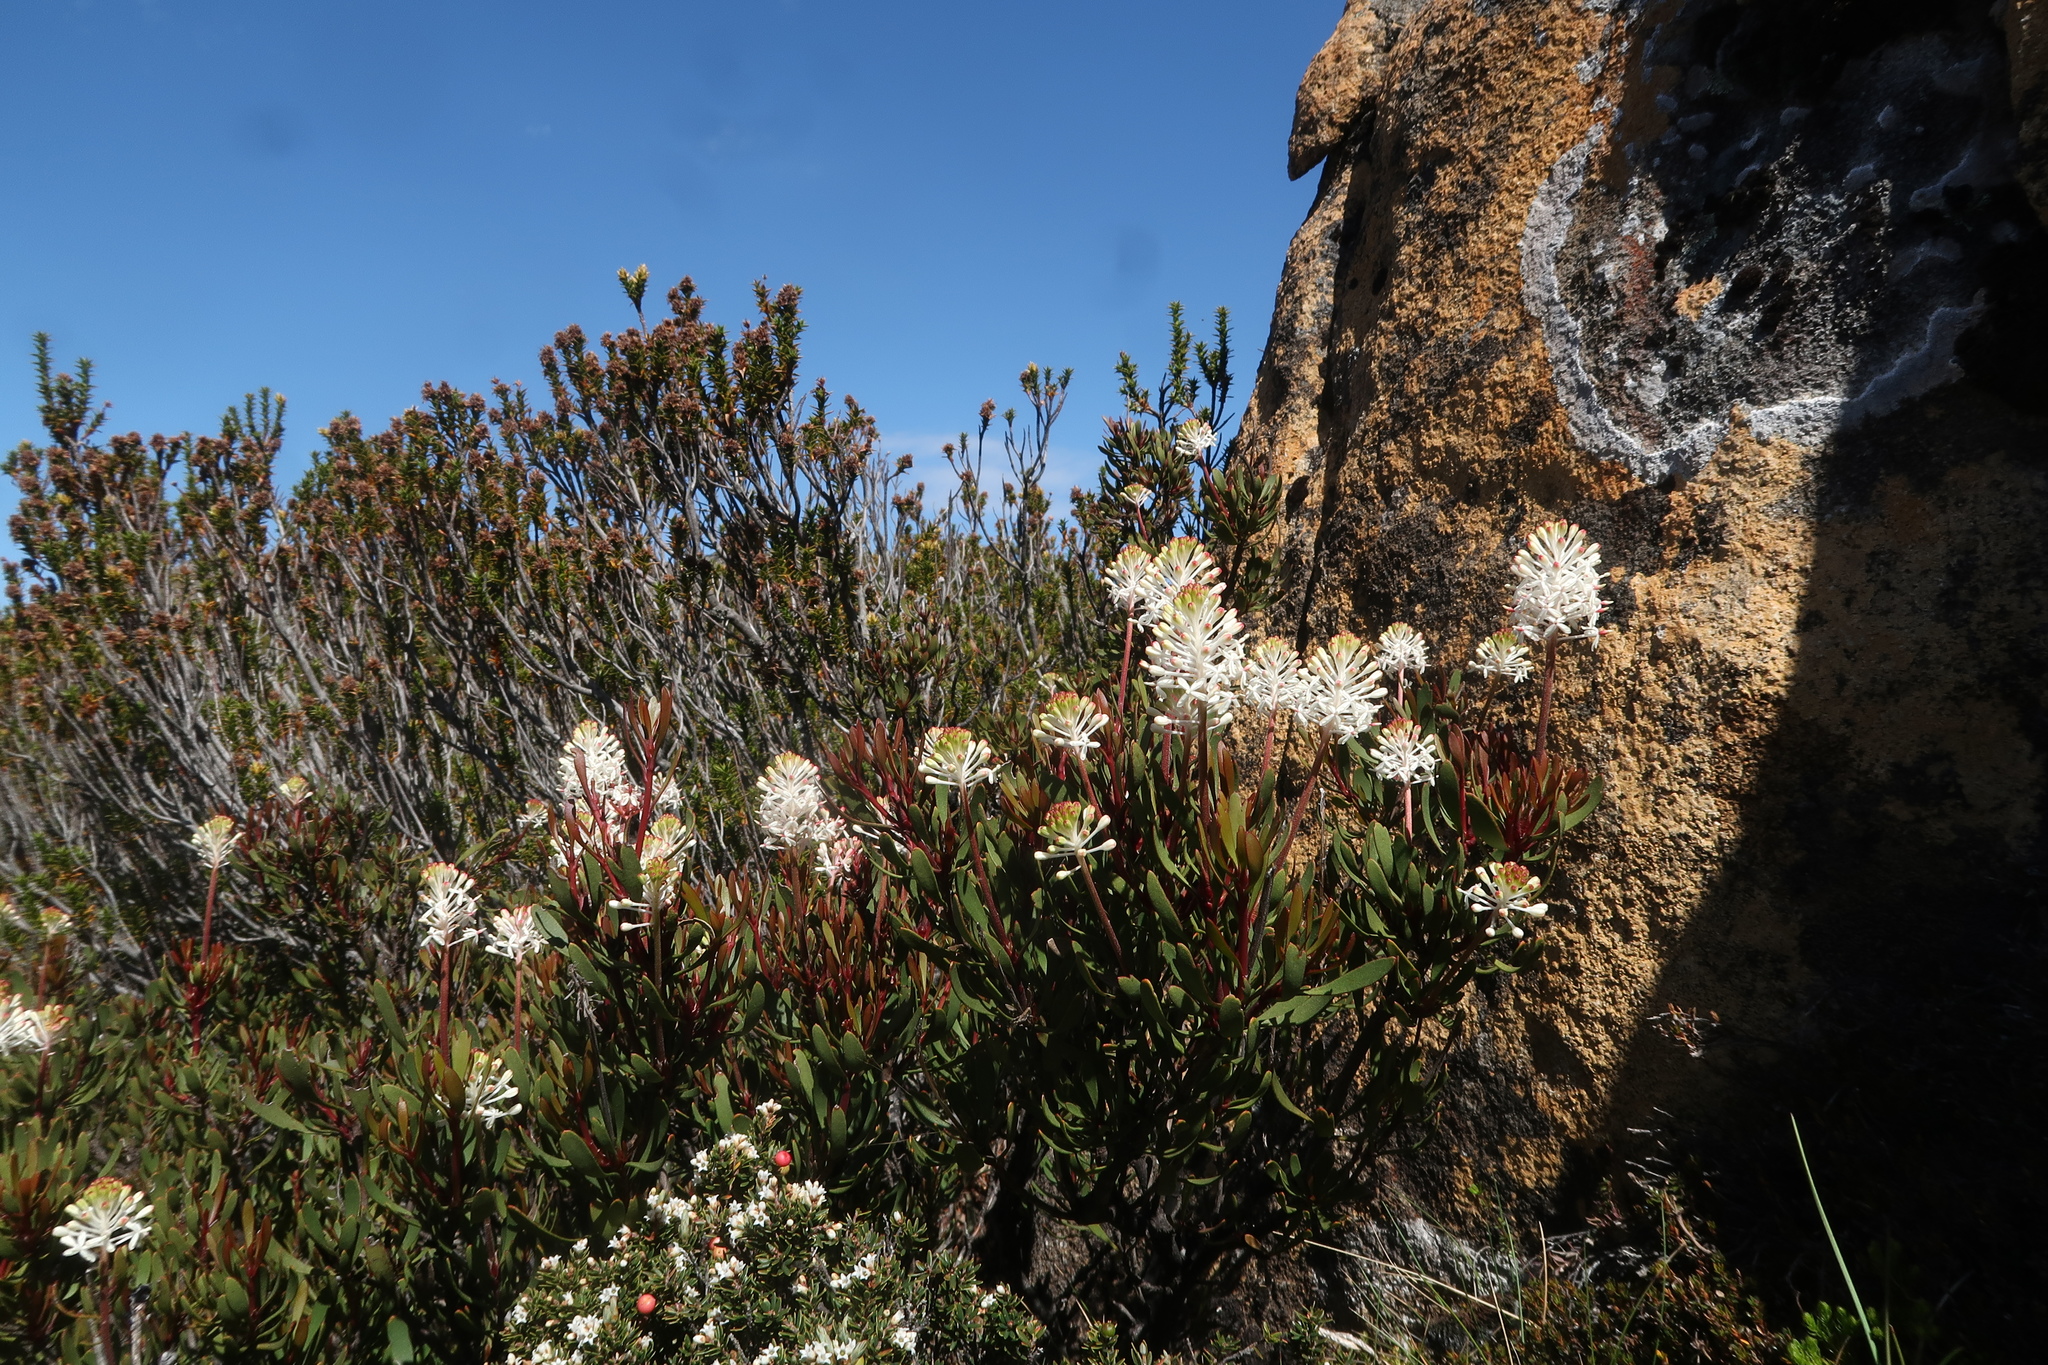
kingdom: Plantae
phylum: Tracheophyta
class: Magnoliopsida
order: Proteales
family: Proteaceae
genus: Bellendena
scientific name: Bellendena montana
